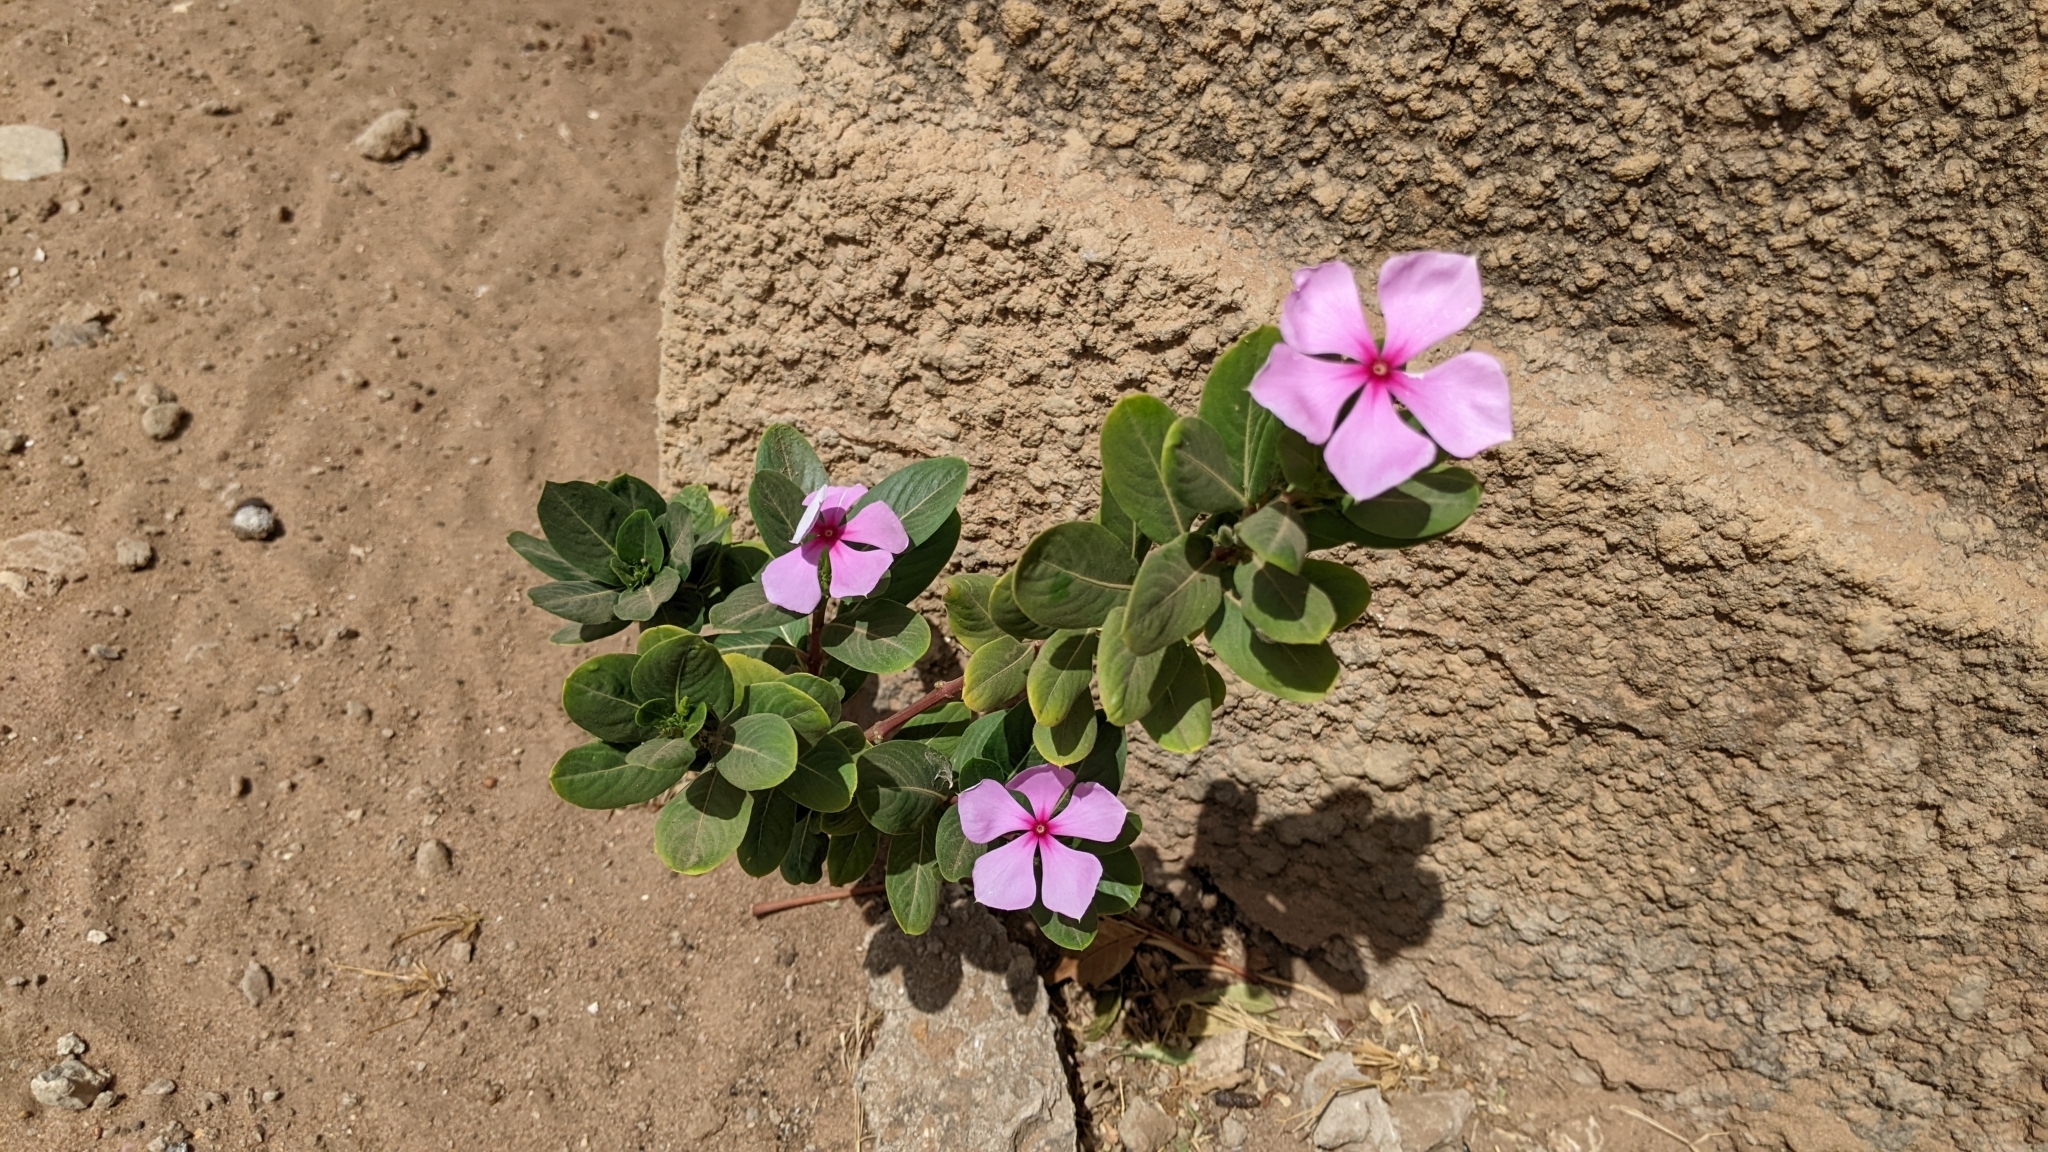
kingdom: Plantae
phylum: Tracheophyta
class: Magnoliopsida
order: Gentianales
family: Apocynaceae
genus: Catharanthus
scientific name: Catharanthus roseus
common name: Madagascar periwinkle
